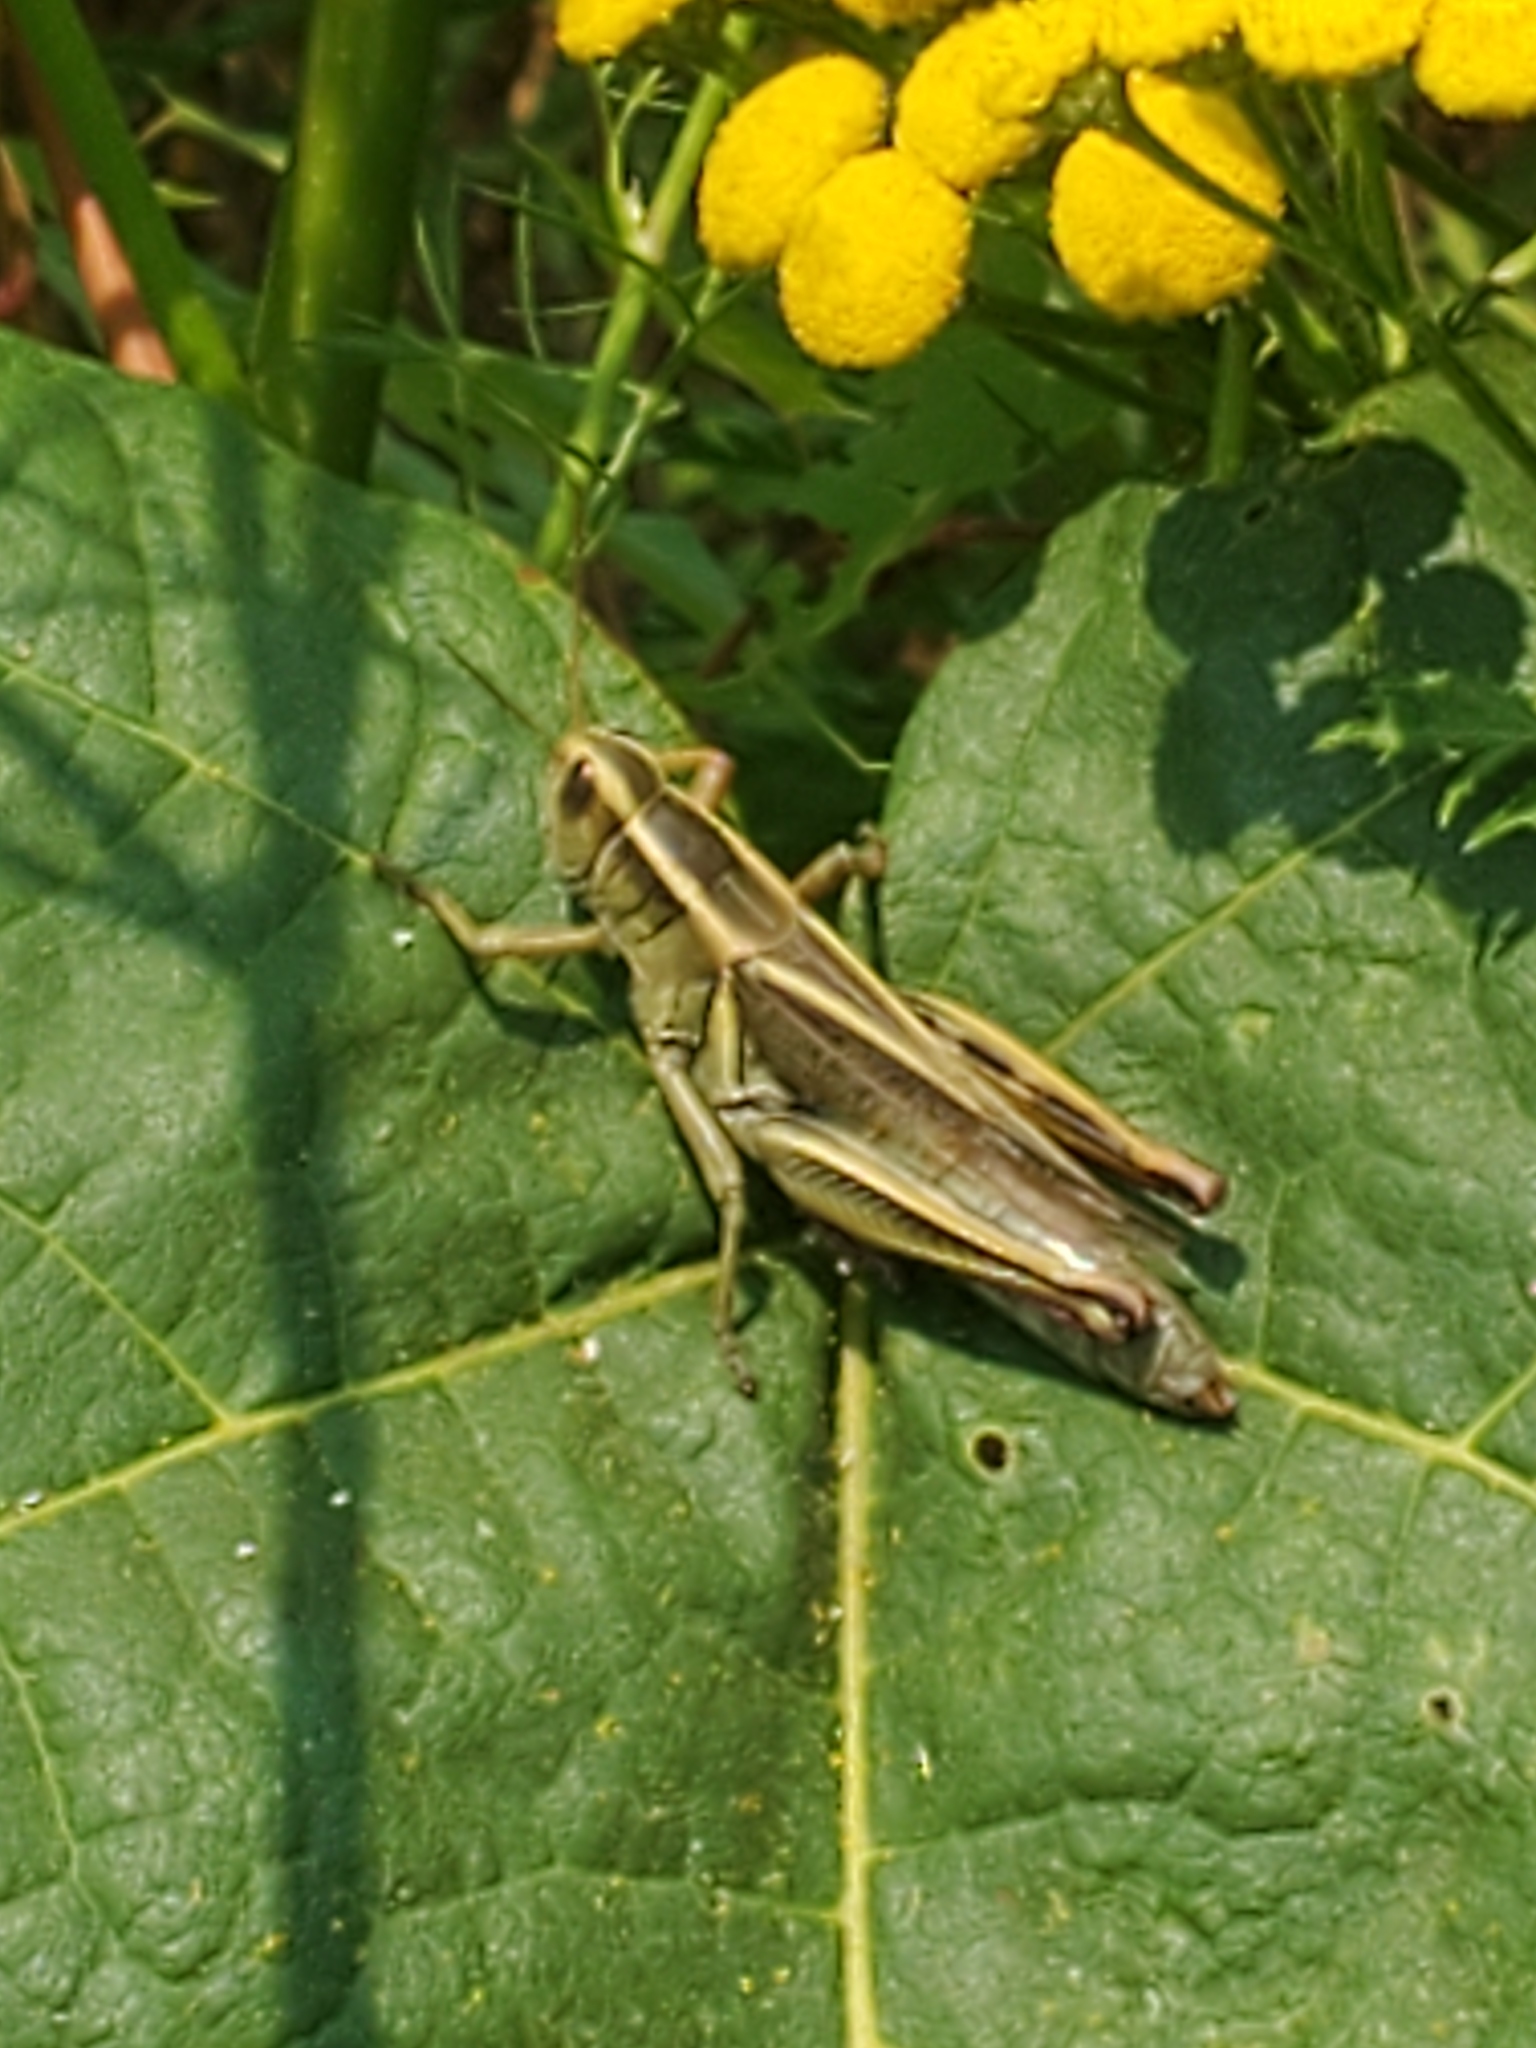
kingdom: Animalia
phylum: Arthropoda
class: Insecta
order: Orthoptera
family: Acrididae
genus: Melanoplus
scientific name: Melanoplus bivittatus
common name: Two-striped grasshopper
